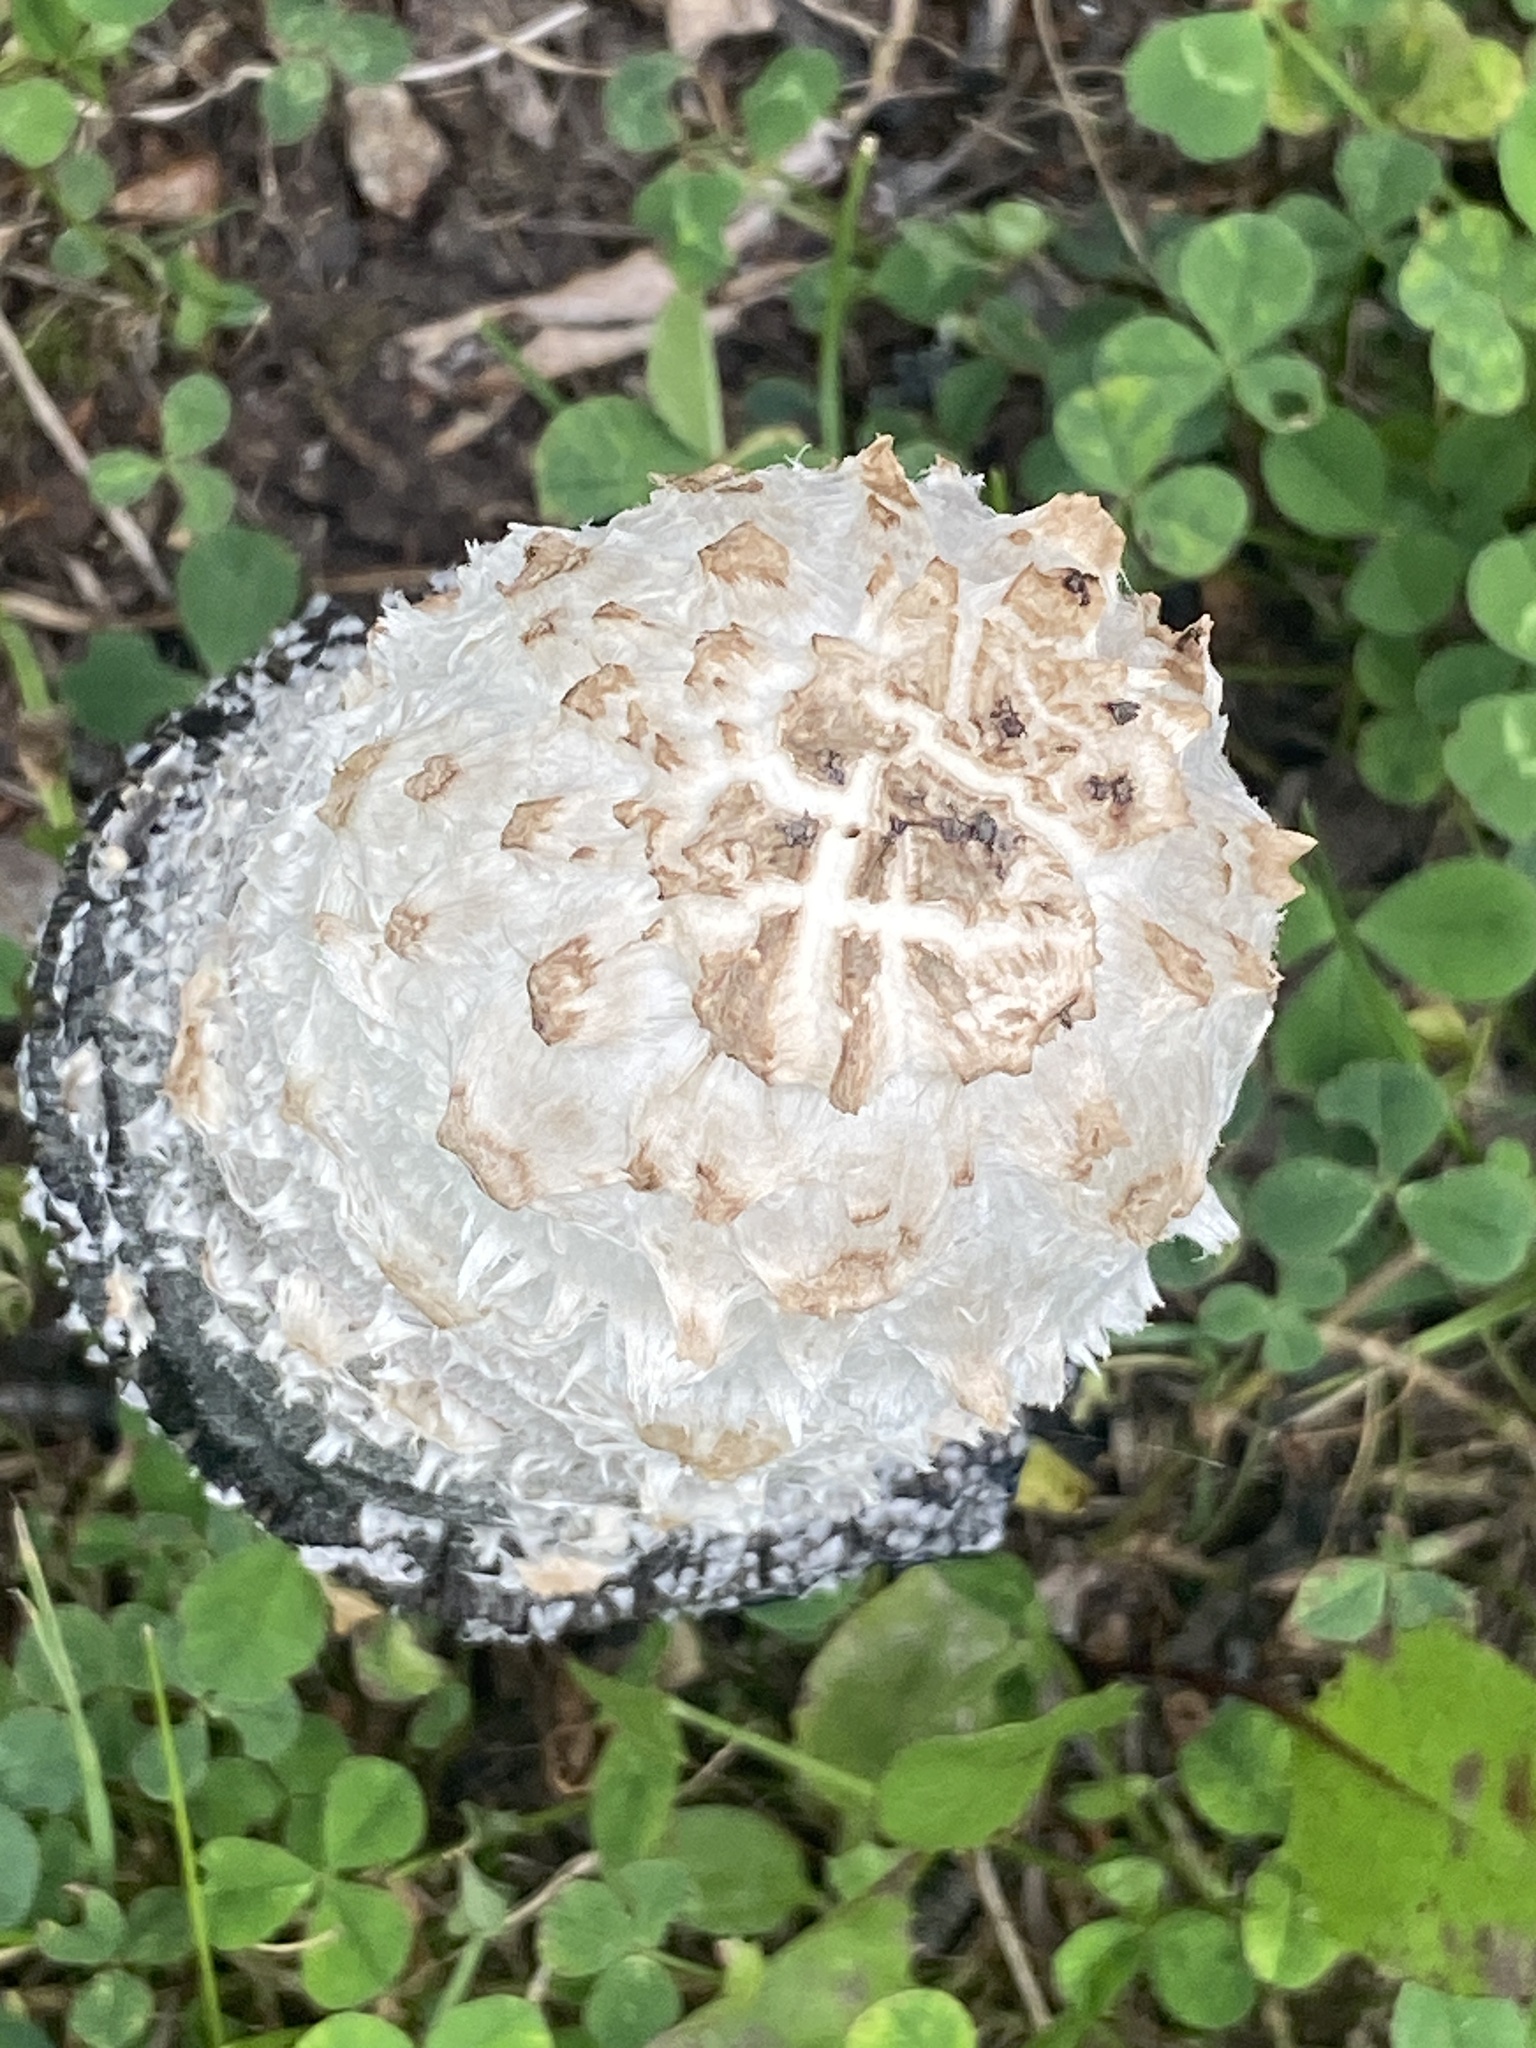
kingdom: Fungi
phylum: Basidiomycota
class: Agaricomycetes
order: Agaricales
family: Agaricaceae
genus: Coprinus
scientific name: Coprinus comatus
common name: Lawyer's wig
